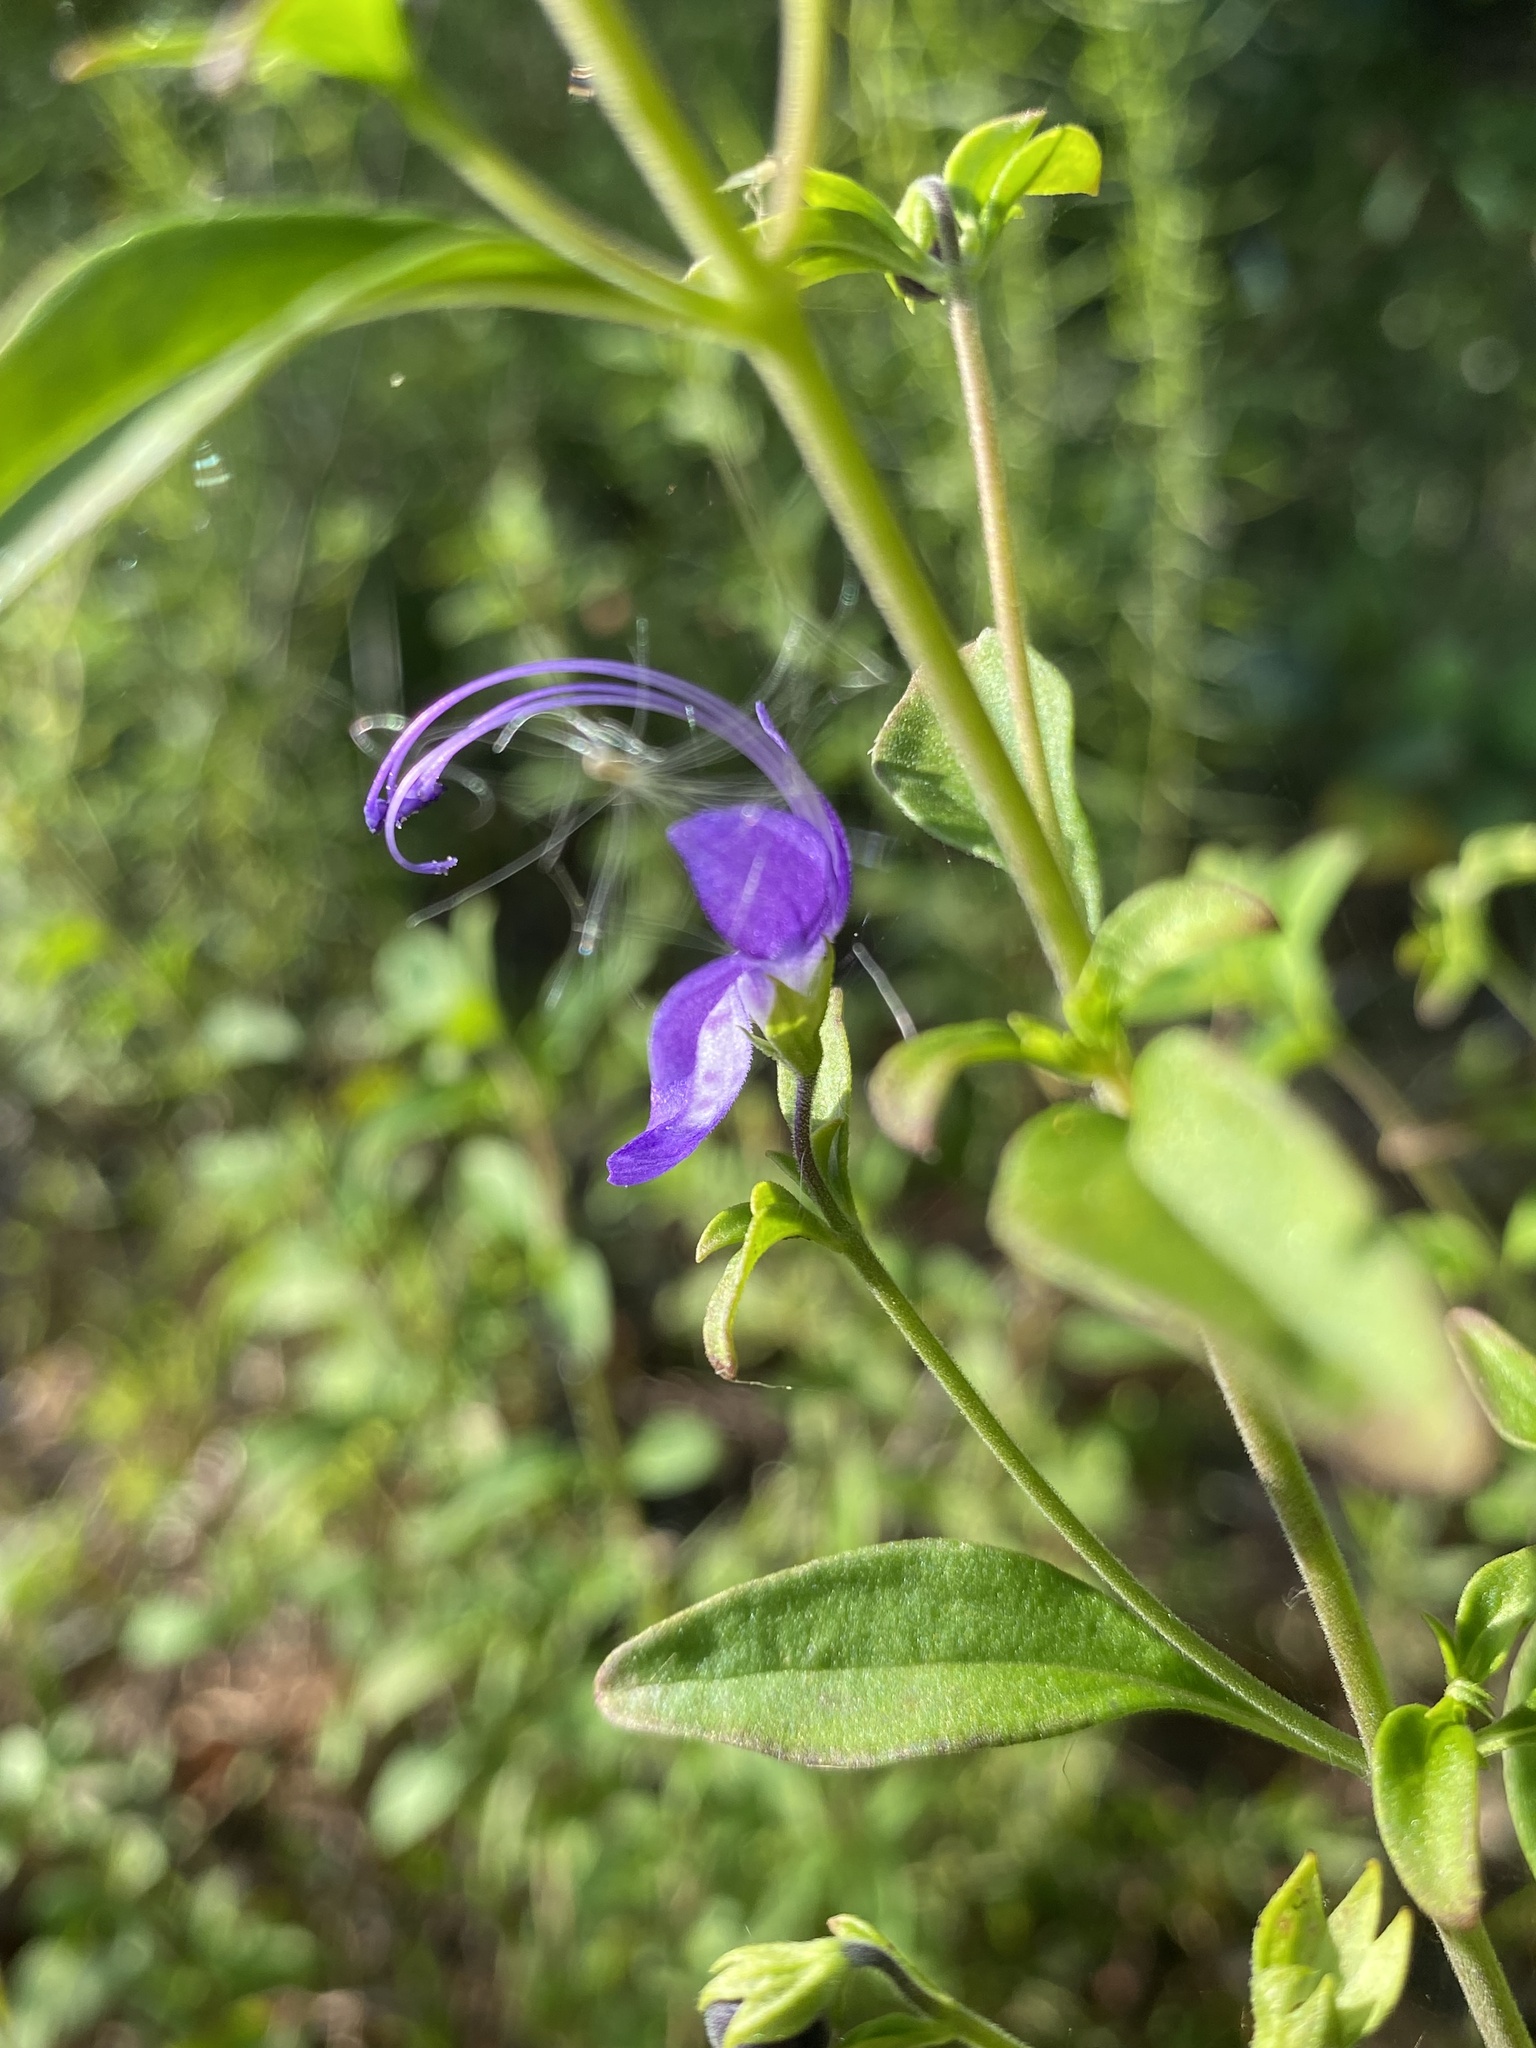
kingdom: Plantae
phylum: Tracheophyta
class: Magnoliopsida
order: Lamiales
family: Lamiaceae
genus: Trichostema
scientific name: Trichostema fruticosum
